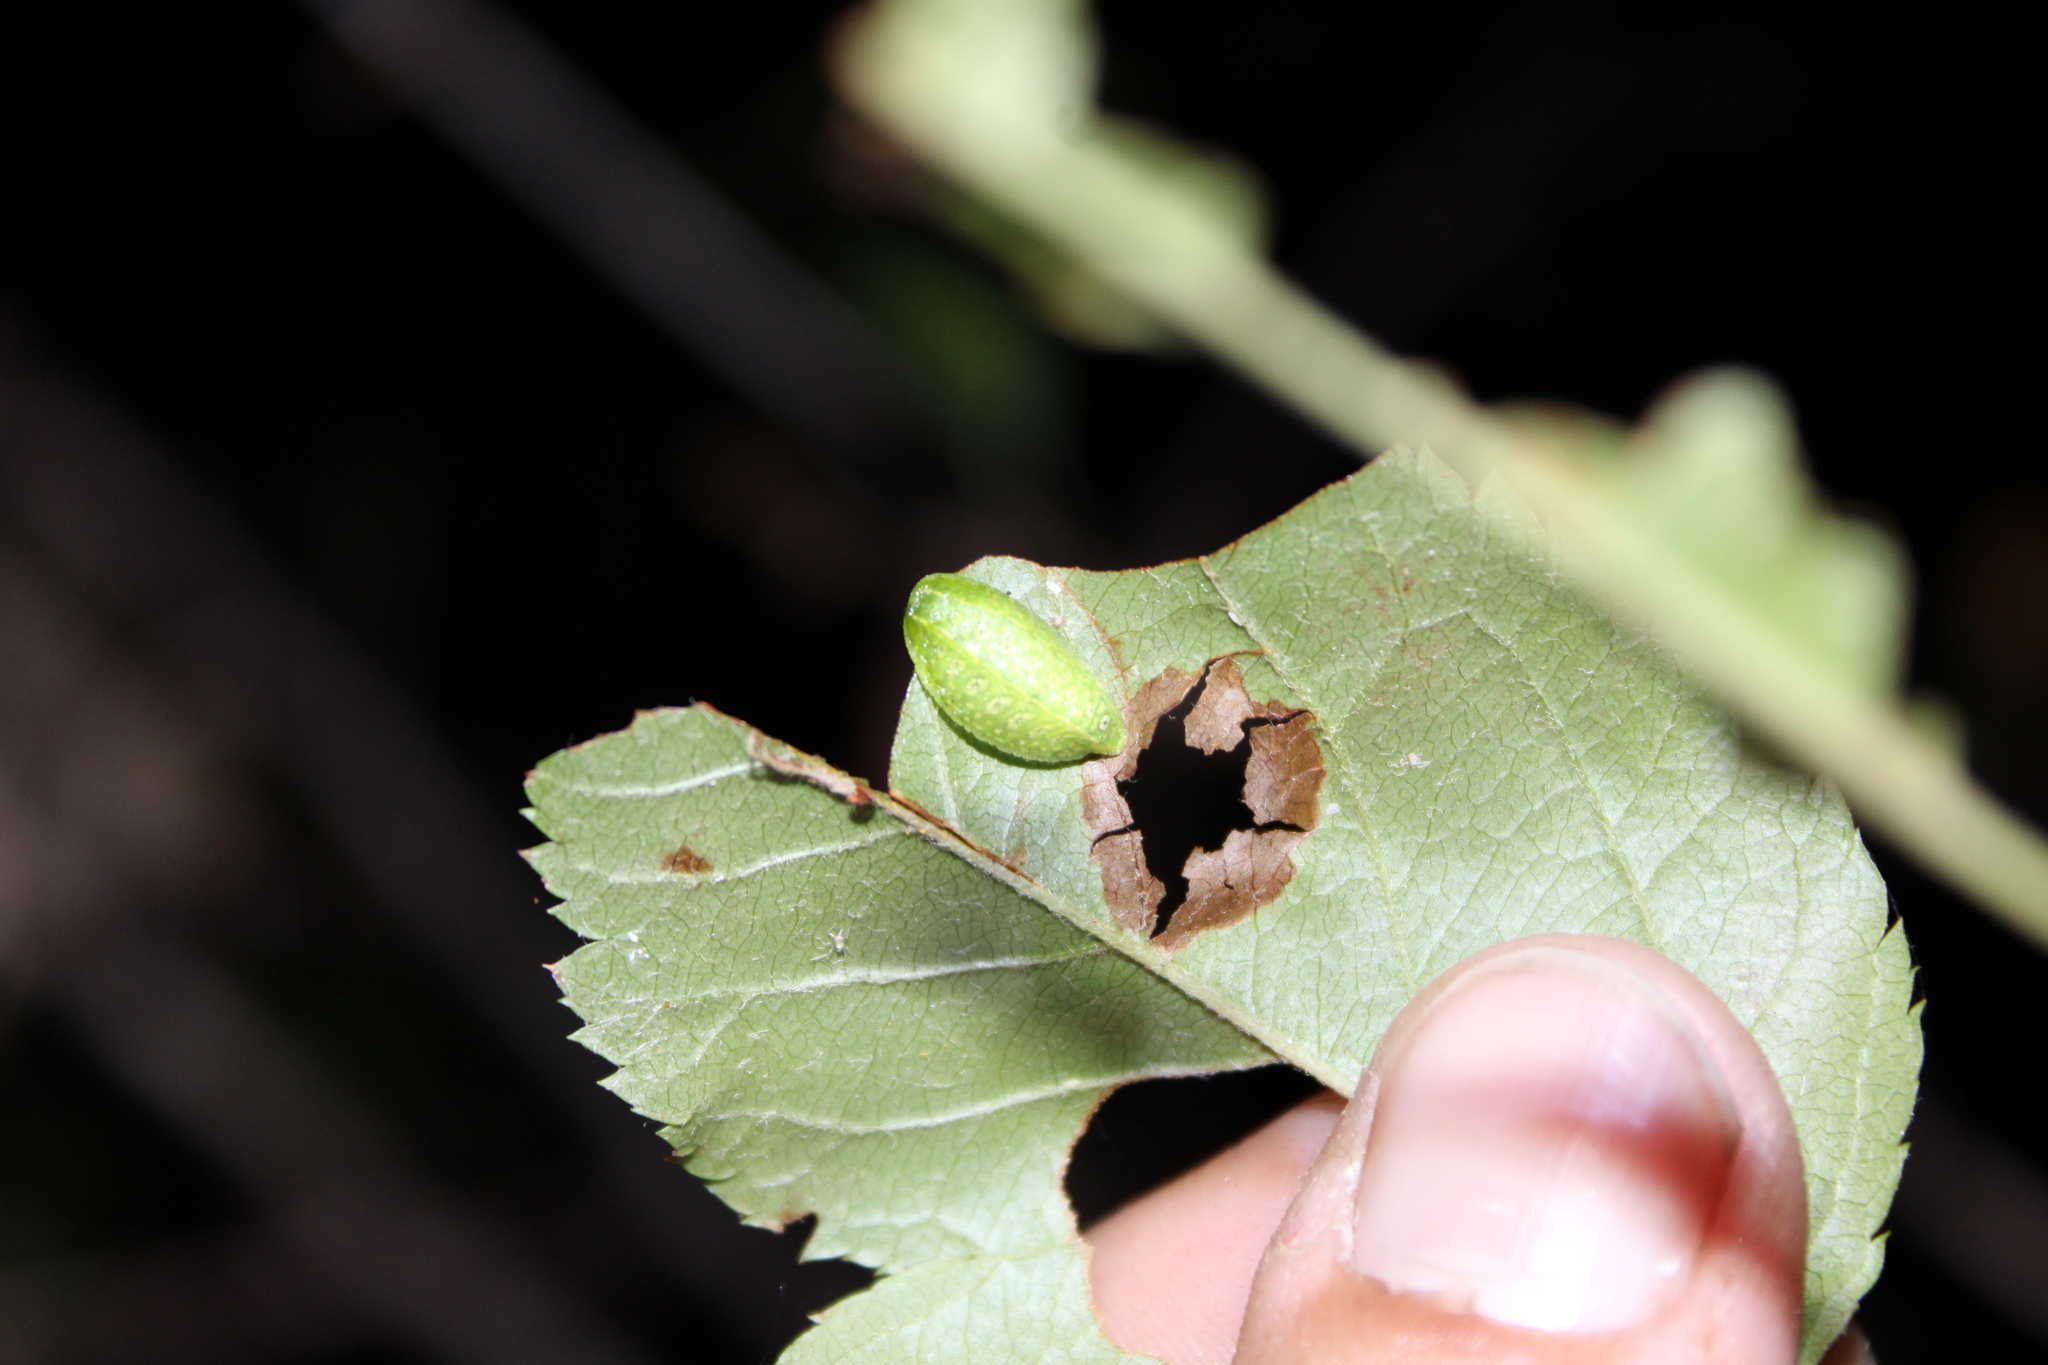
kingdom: Animalia
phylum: Arthropoda
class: Insecta
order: Lepidoptera
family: Limacodidae
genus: Lithacodes
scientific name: Lithacodes fasciola
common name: Yellow-shouldered slug moth
